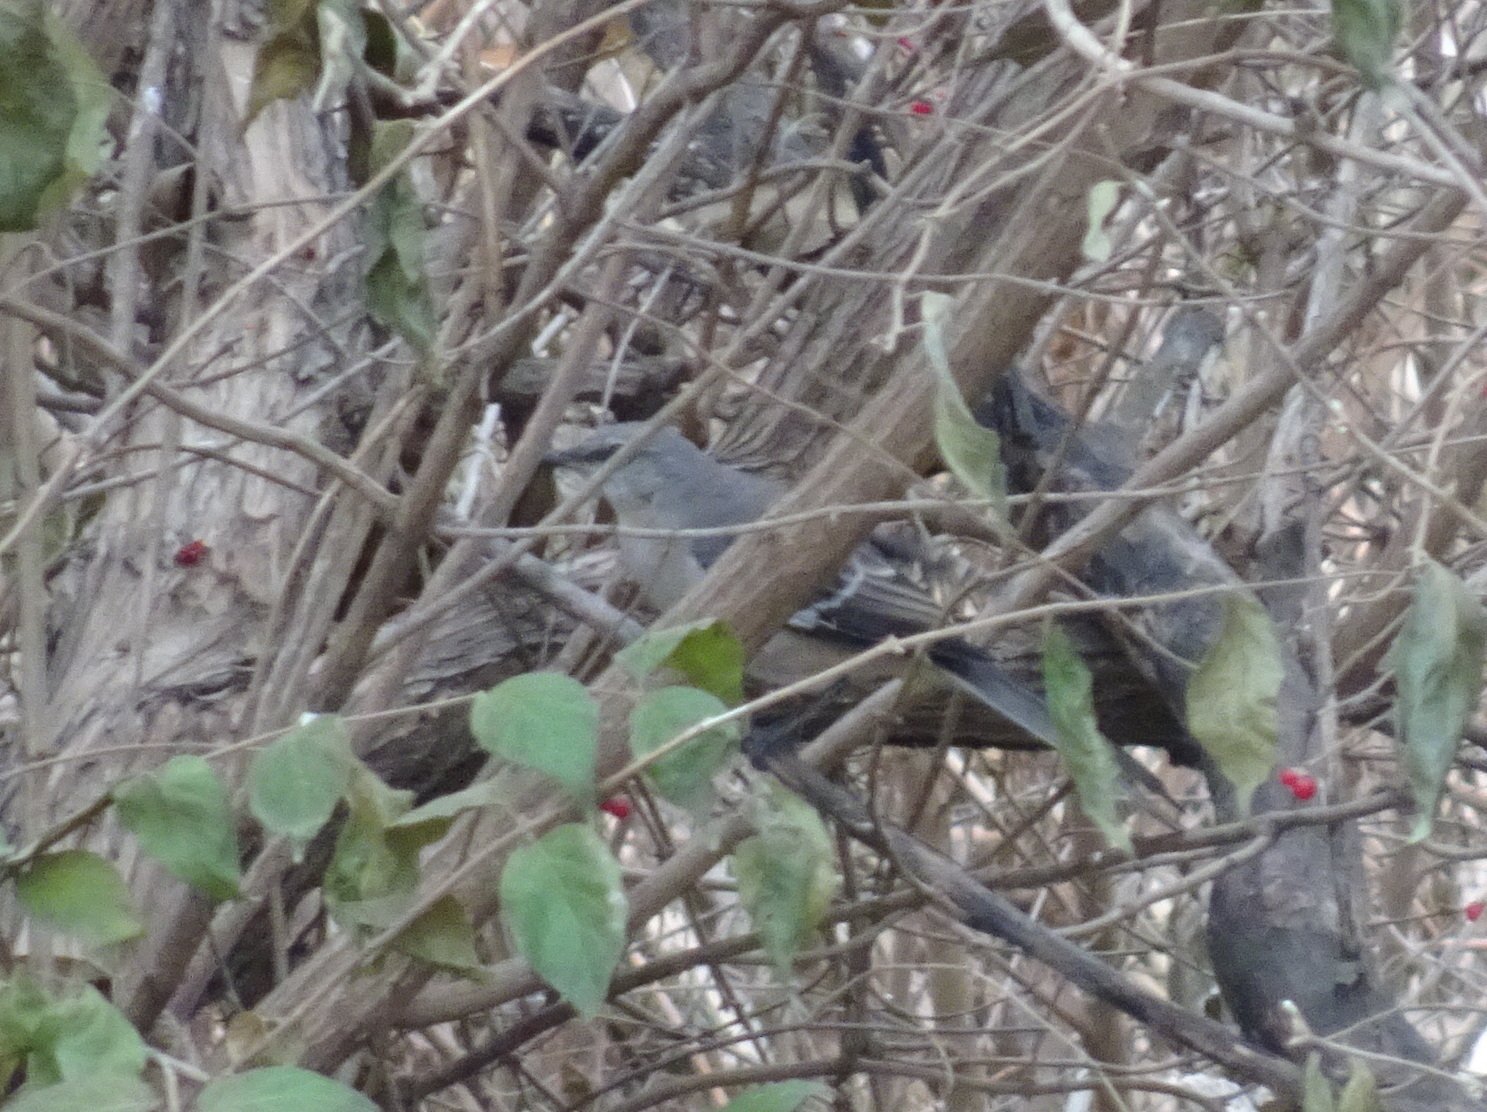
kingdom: Animalia
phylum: Chordata
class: Aves
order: Passeriformes
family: Mimidae
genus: Mimus
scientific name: Mimus polyglottos
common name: Northern mockingbird
